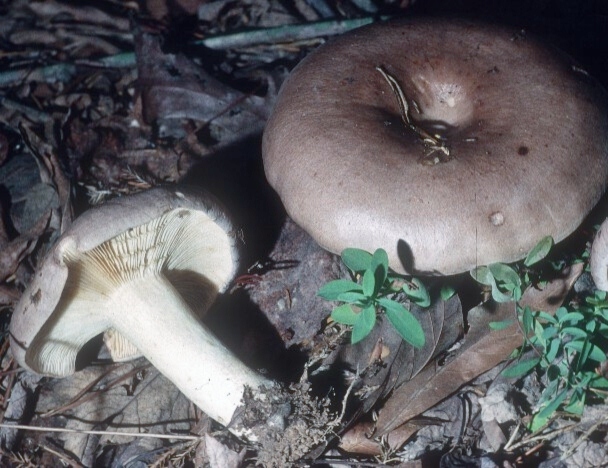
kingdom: Fungi
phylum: Basidiomycota
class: Agaricomycetes
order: Russulales
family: Russulaceae
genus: Lactarius
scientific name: Lactarius argillaceifolius
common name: Clay-gilled milkcap
